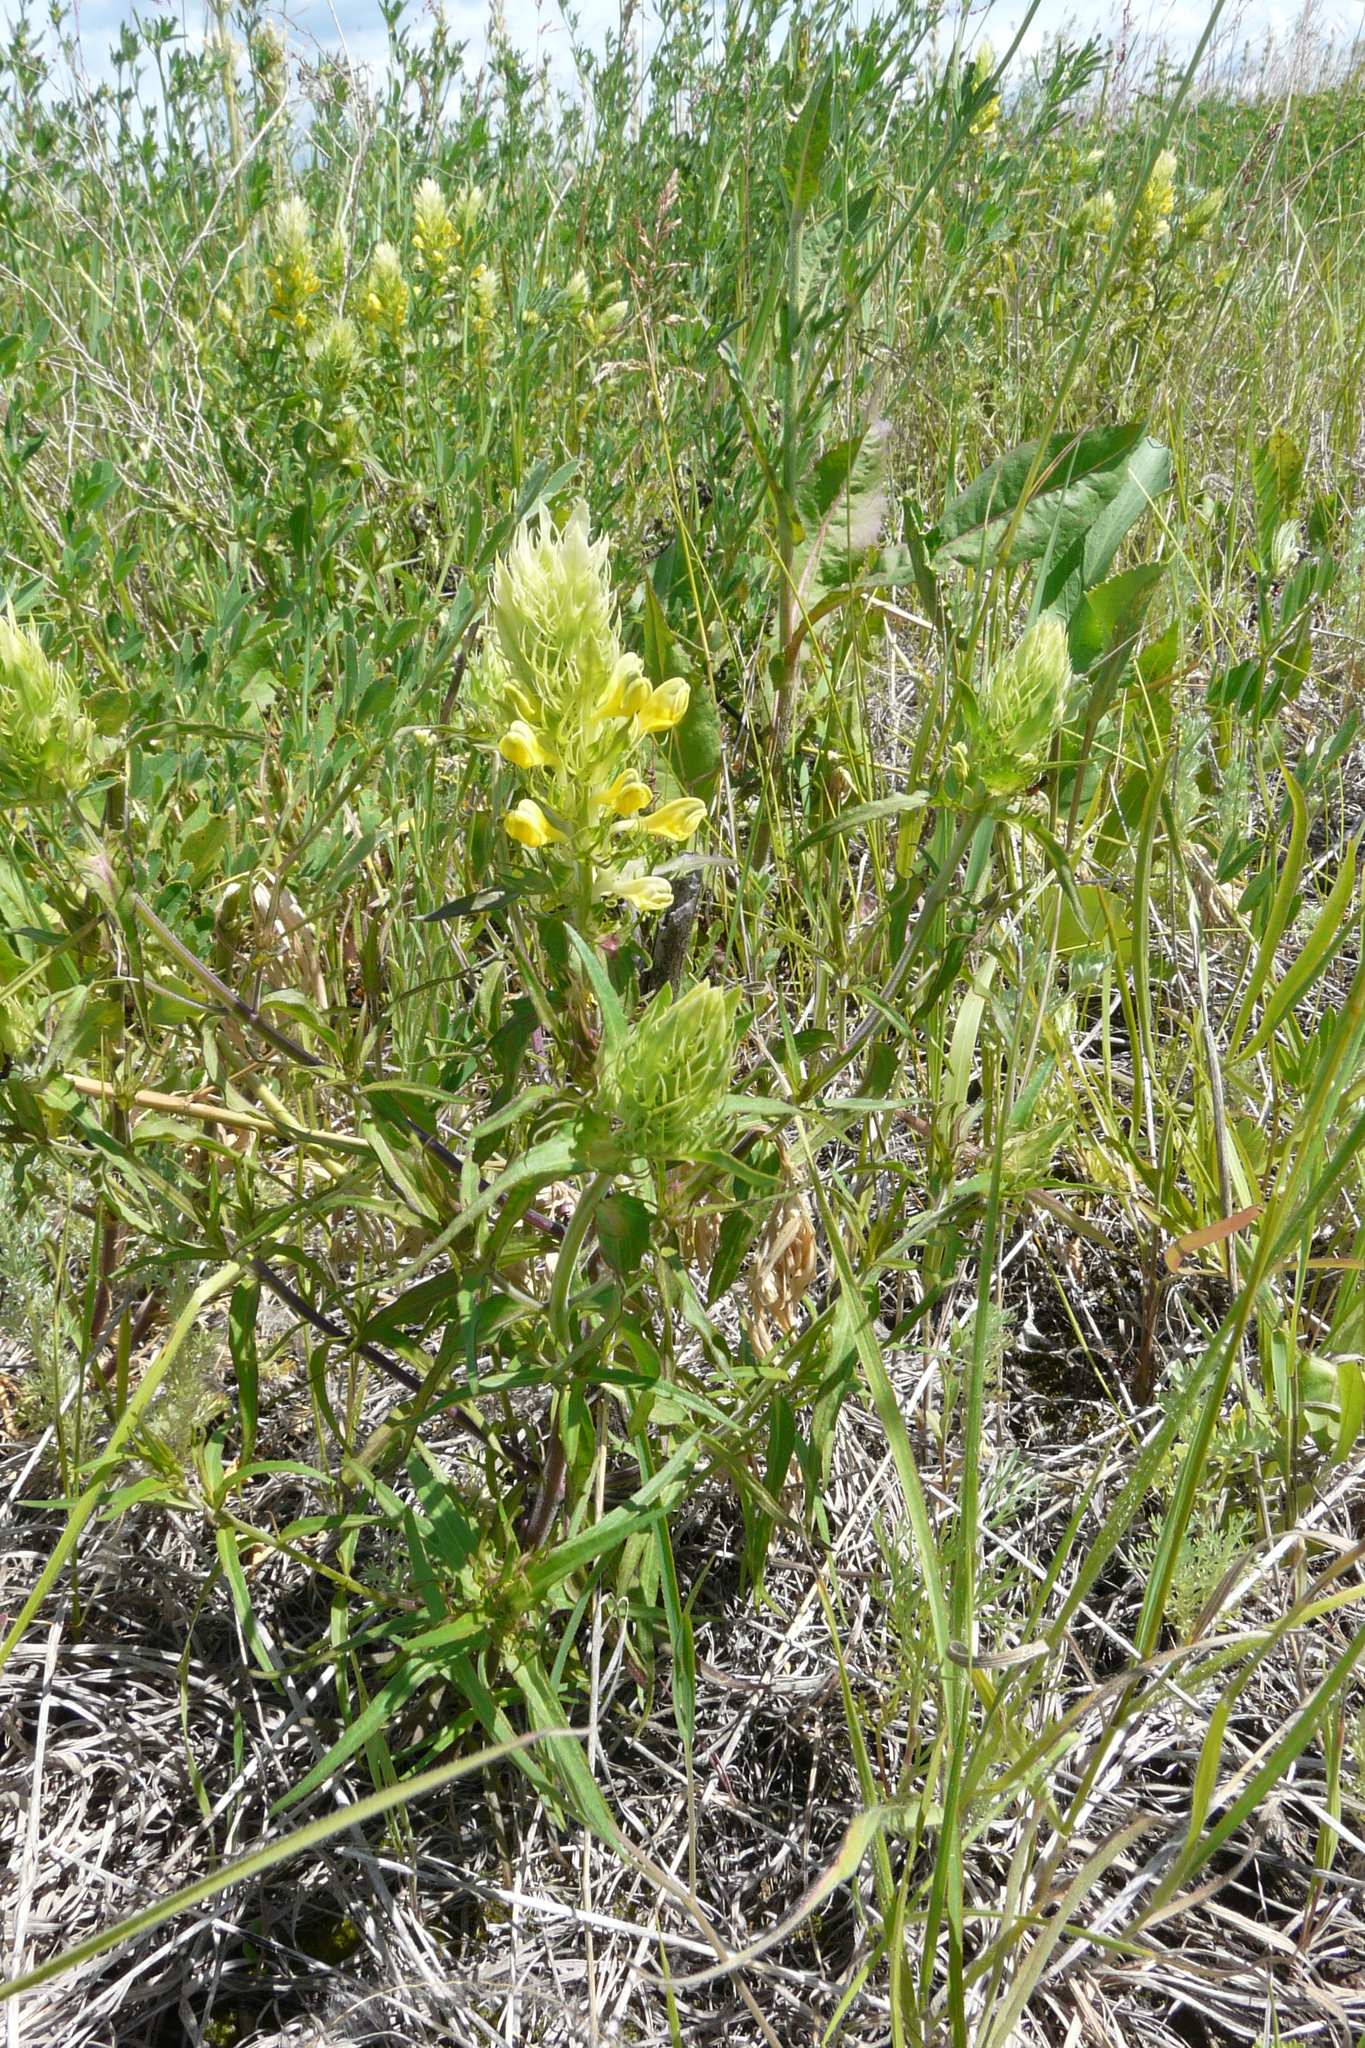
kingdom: Plantae
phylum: Tracheophyta
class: Magnoliopsida
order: Lamiales
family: Orobanchaceae
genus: Melampyrum
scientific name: Melampyrum arvense
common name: Field cow-wheat
